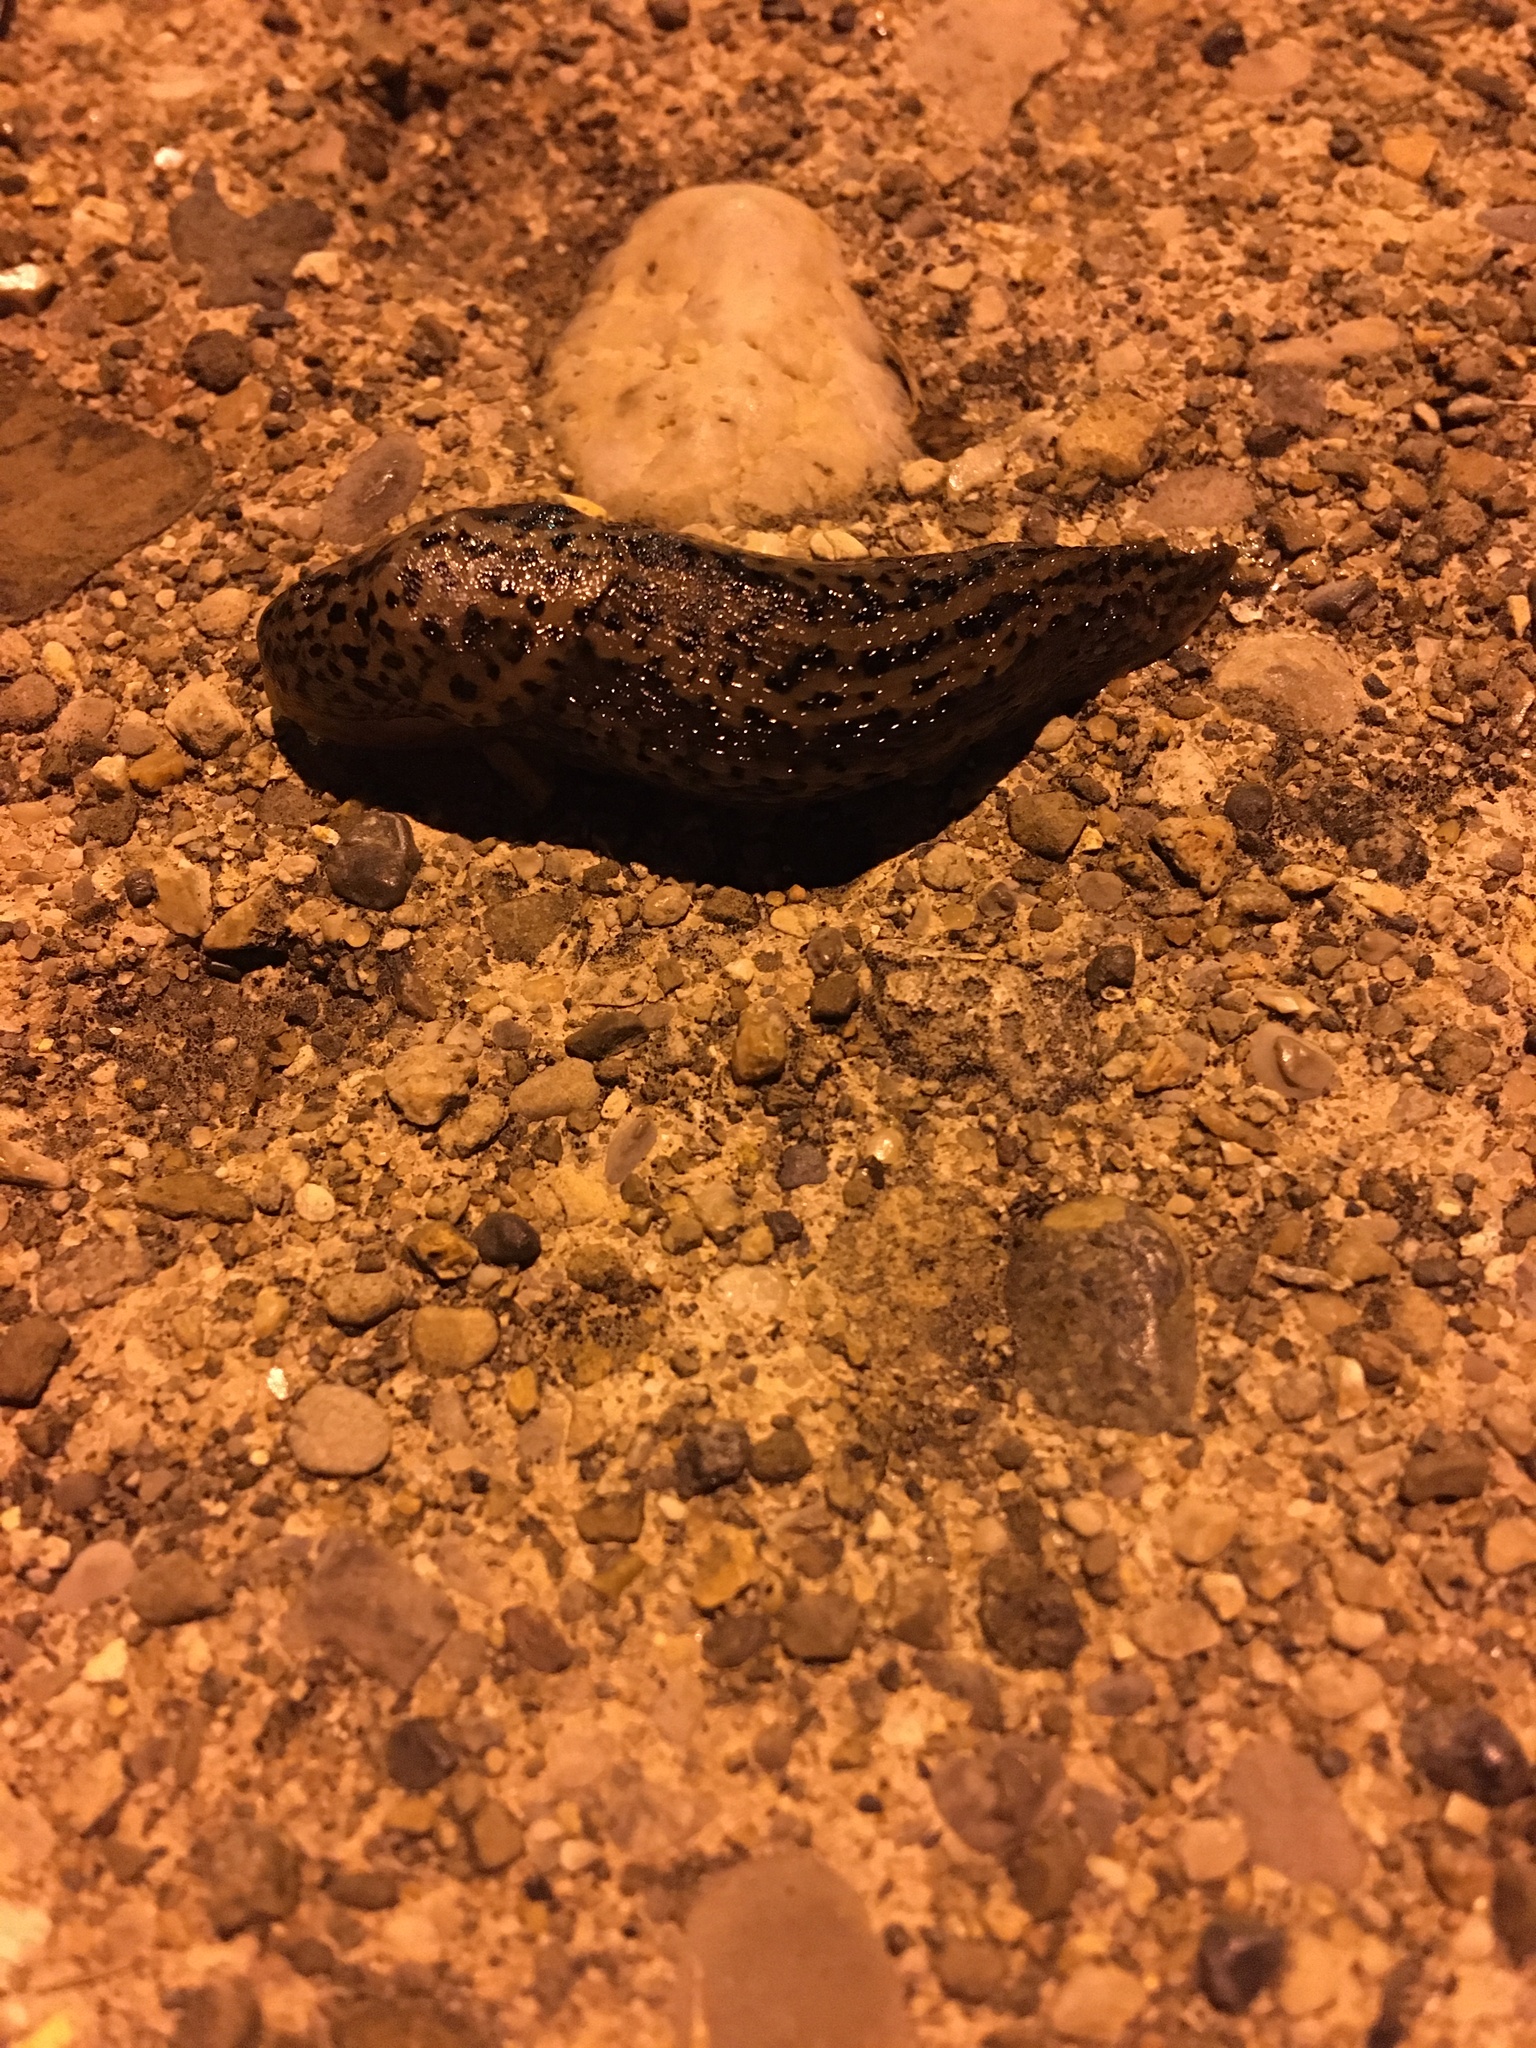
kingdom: Animalia
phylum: Mollusca
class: Gastropoda
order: Stylommatophora
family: Limacidae
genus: Limax
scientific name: Limax maximus
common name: Great grey slug
